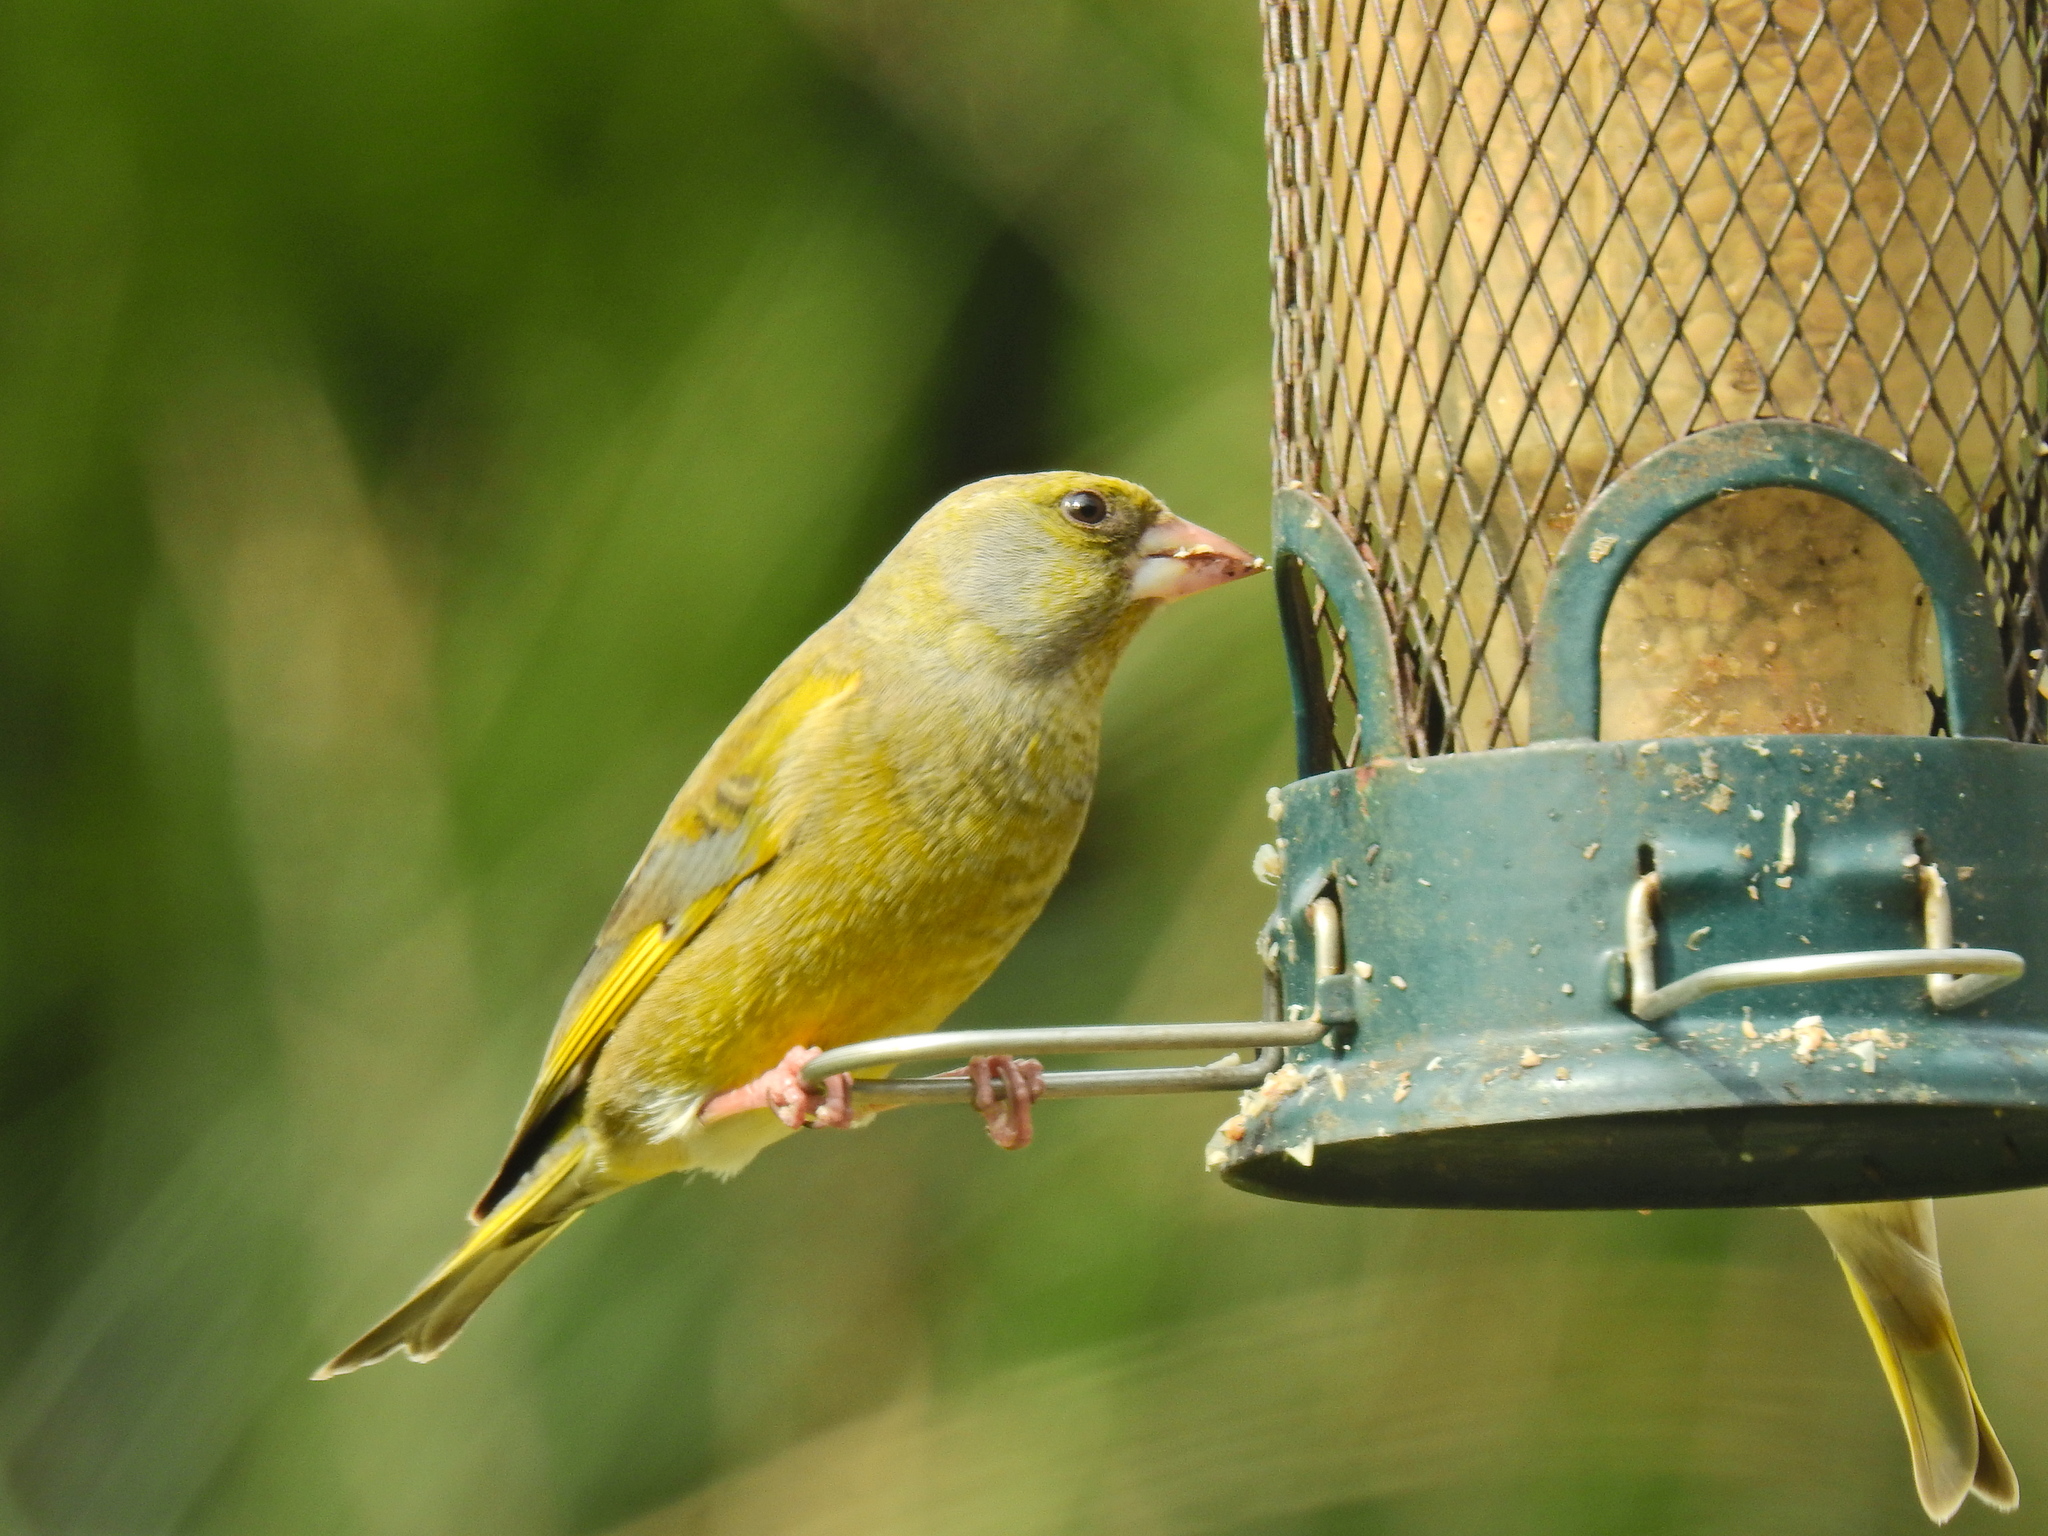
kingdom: Plantae
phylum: Tracheophyta
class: Liliopsida
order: Poales
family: Poaceae
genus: Chloris
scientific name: Chloris chloris
